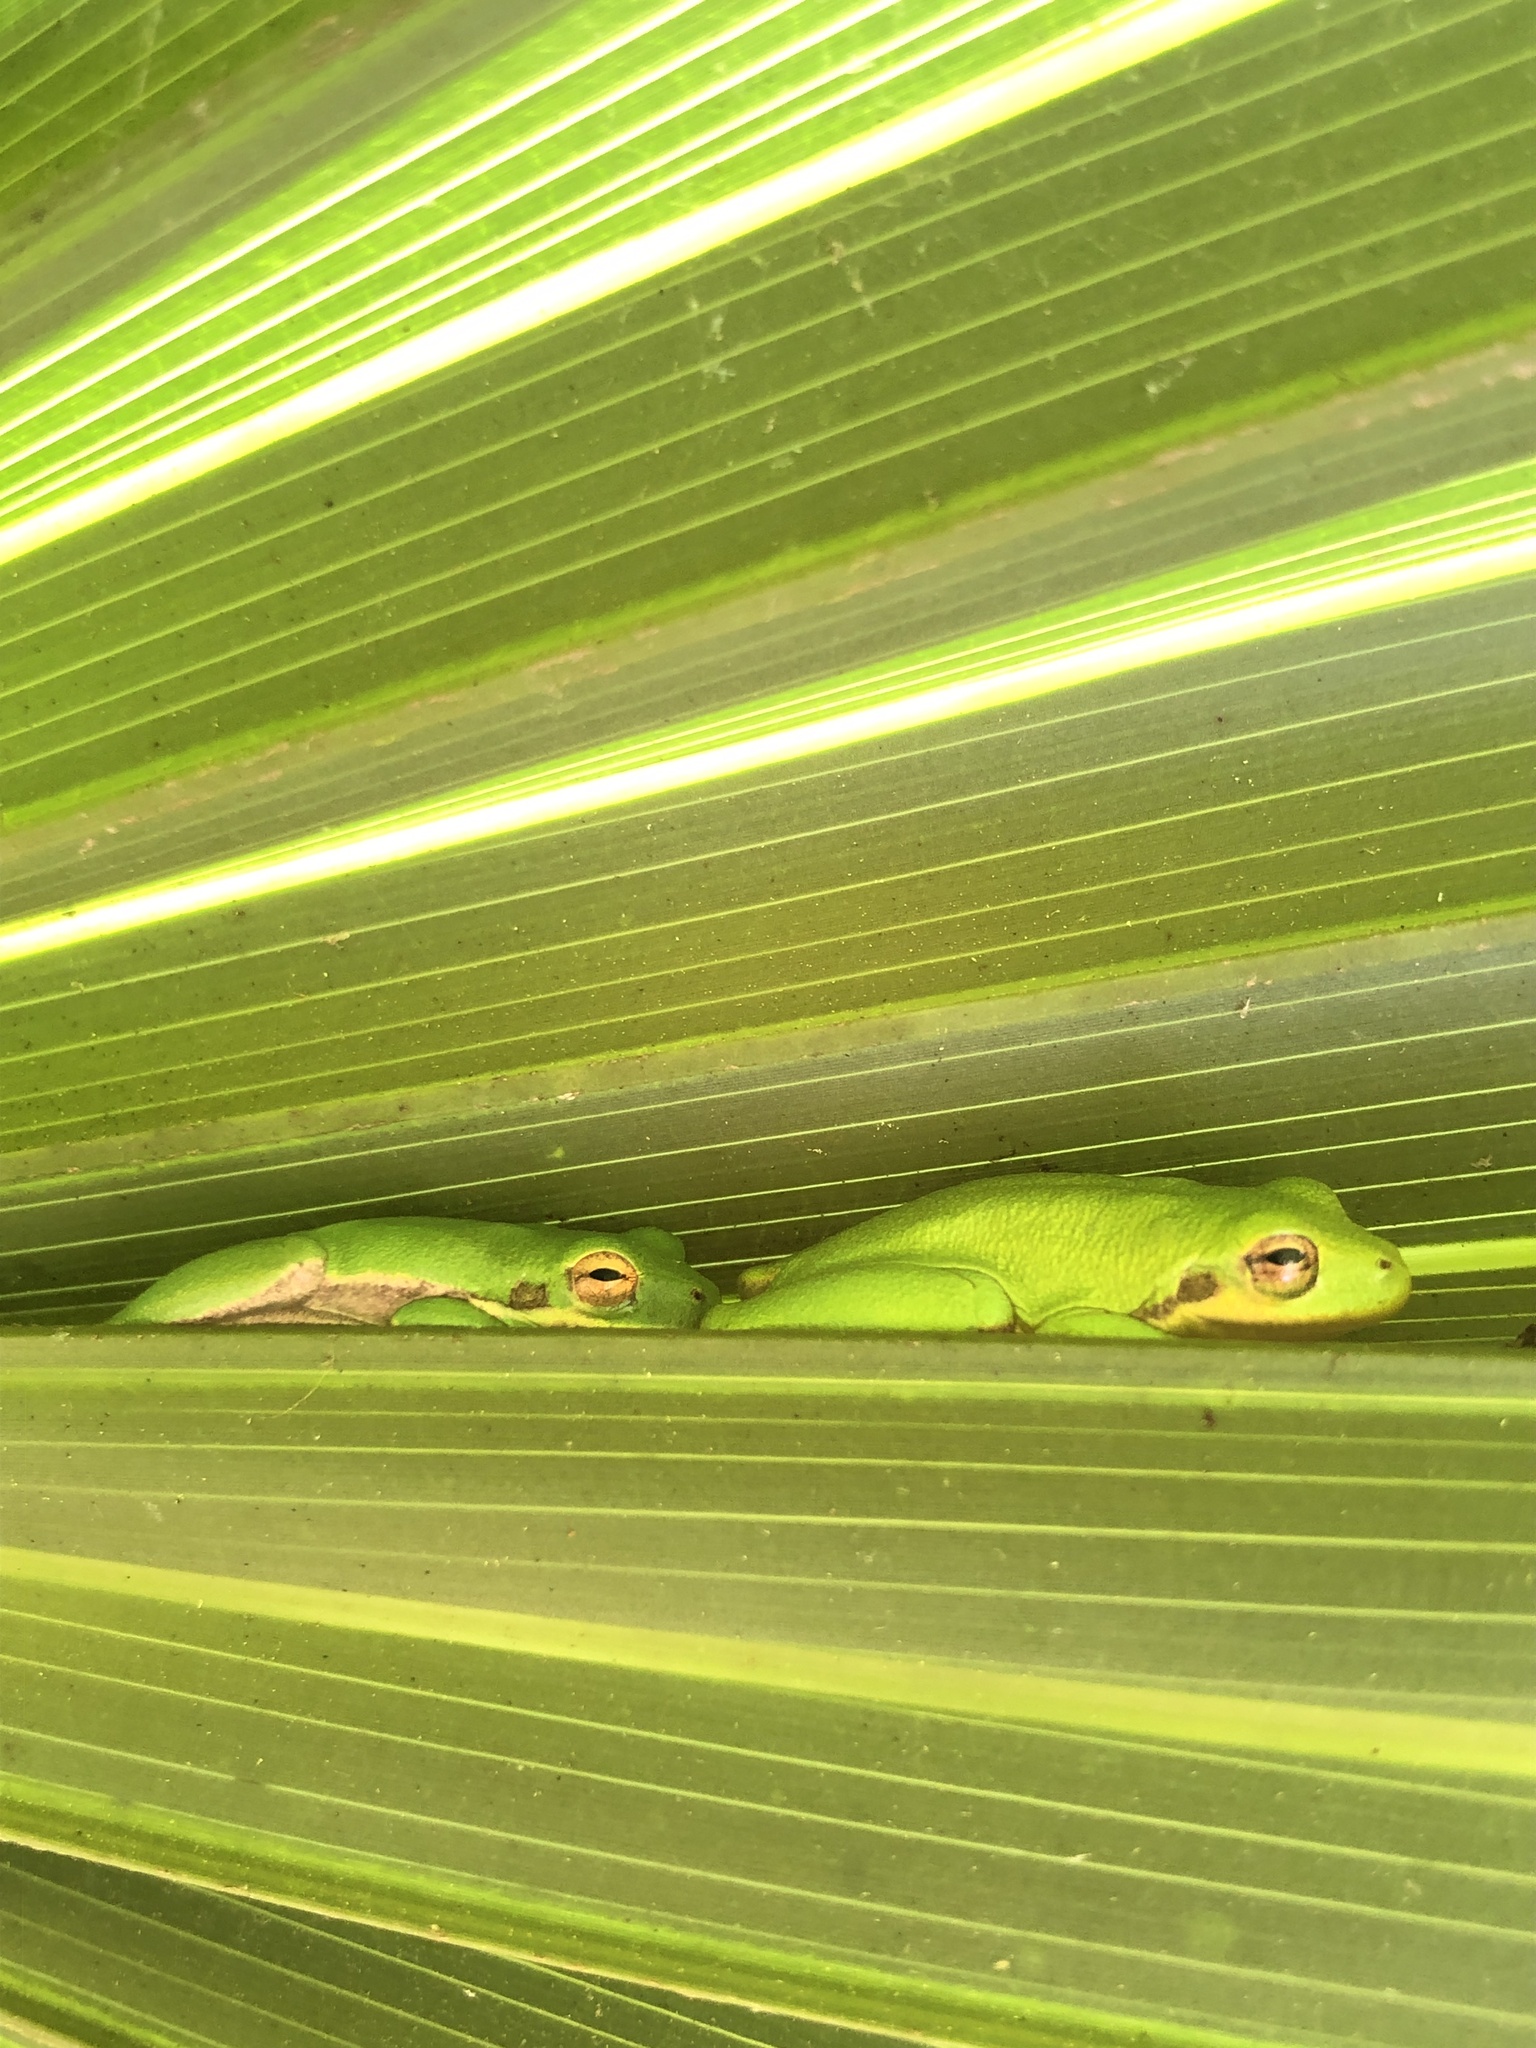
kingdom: Animalia
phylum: Chordata
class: Amphibia
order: Anura
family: Hylidae
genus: Dryophytes
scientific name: Dryophytes squirellus
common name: Squirrel treefrog
